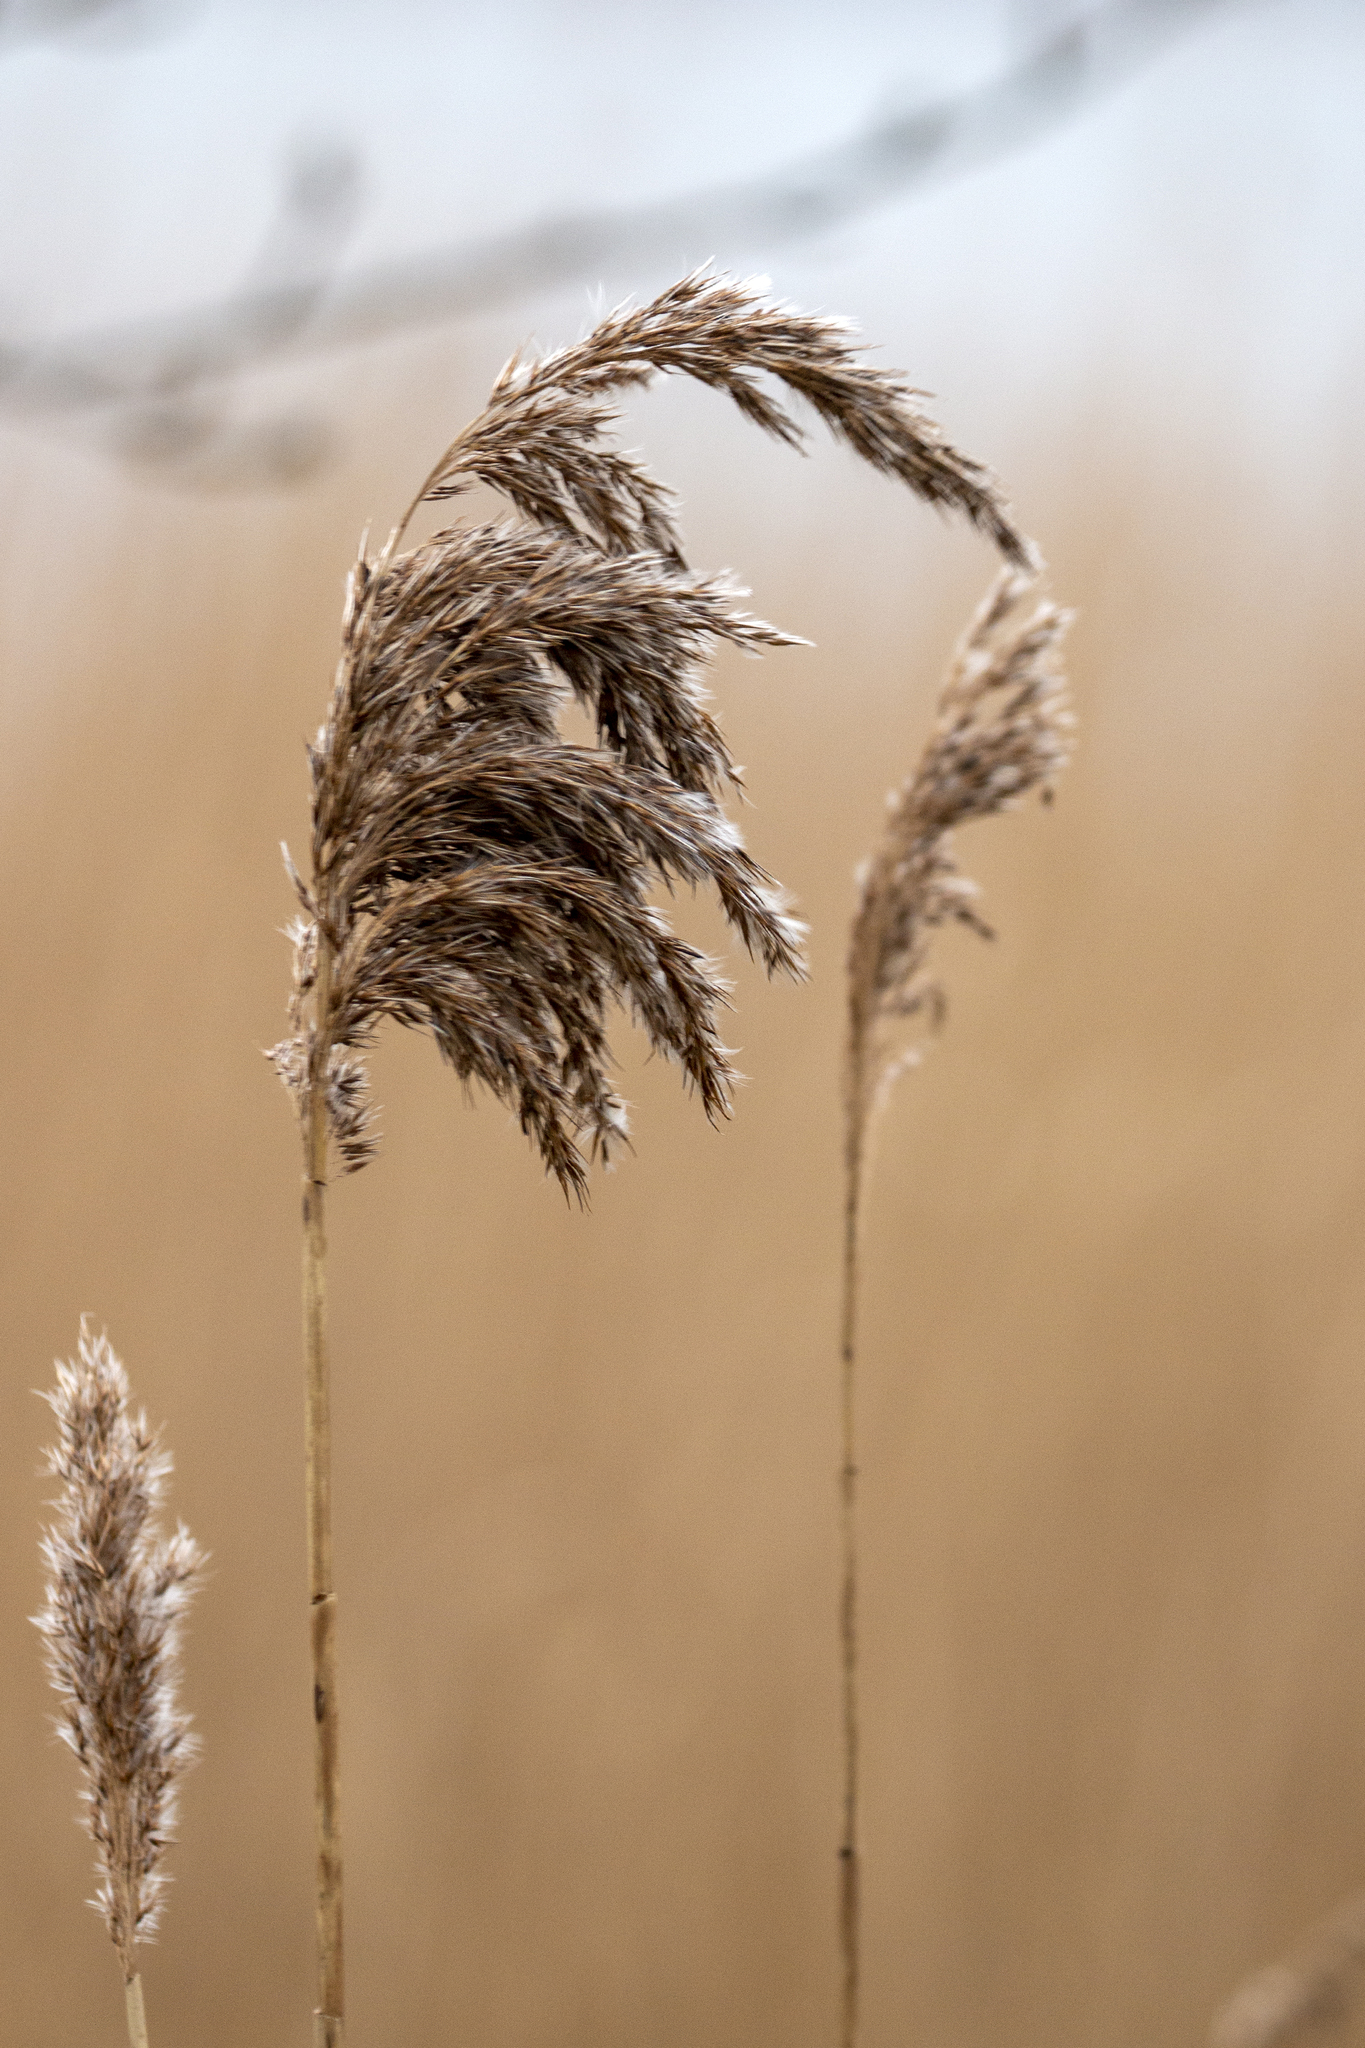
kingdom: Plantae
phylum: Tracheophyta
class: Liliopsida
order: Poales
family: Poaceae
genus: Phragmites
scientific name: Phragmites australis
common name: Common reed
